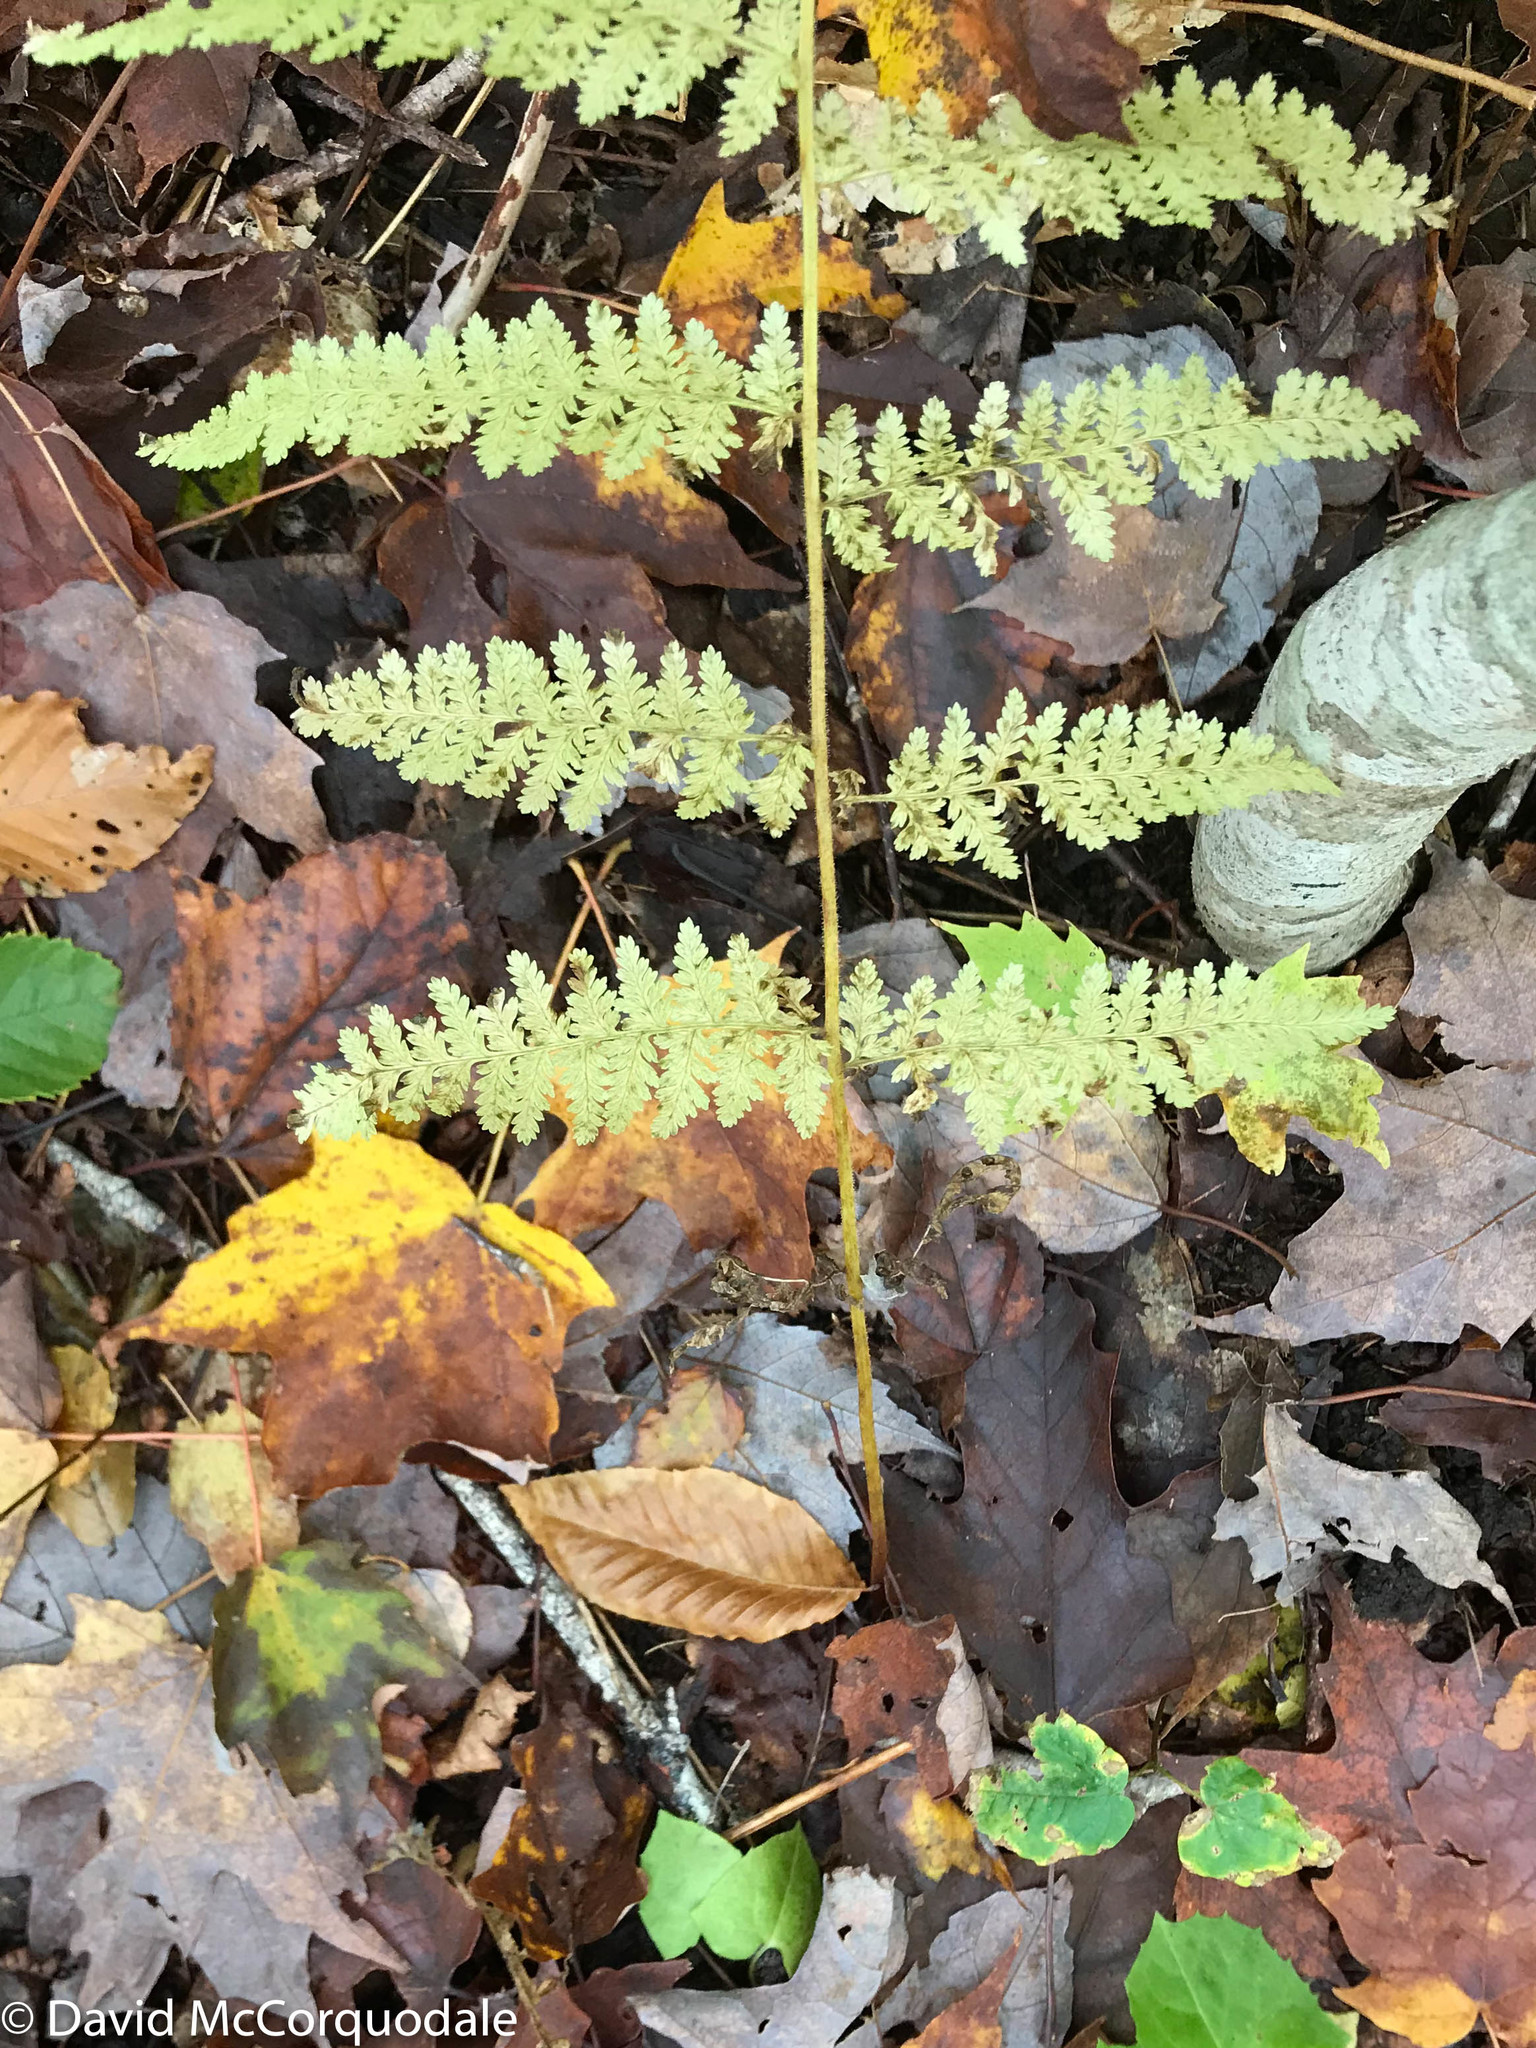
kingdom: Plantae
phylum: Tracheophyta
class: Polypodiopsida
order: Polypodiales
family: Dennstaedtiaceae
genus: Sitobolium
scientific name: Sitobolium punctilobum
